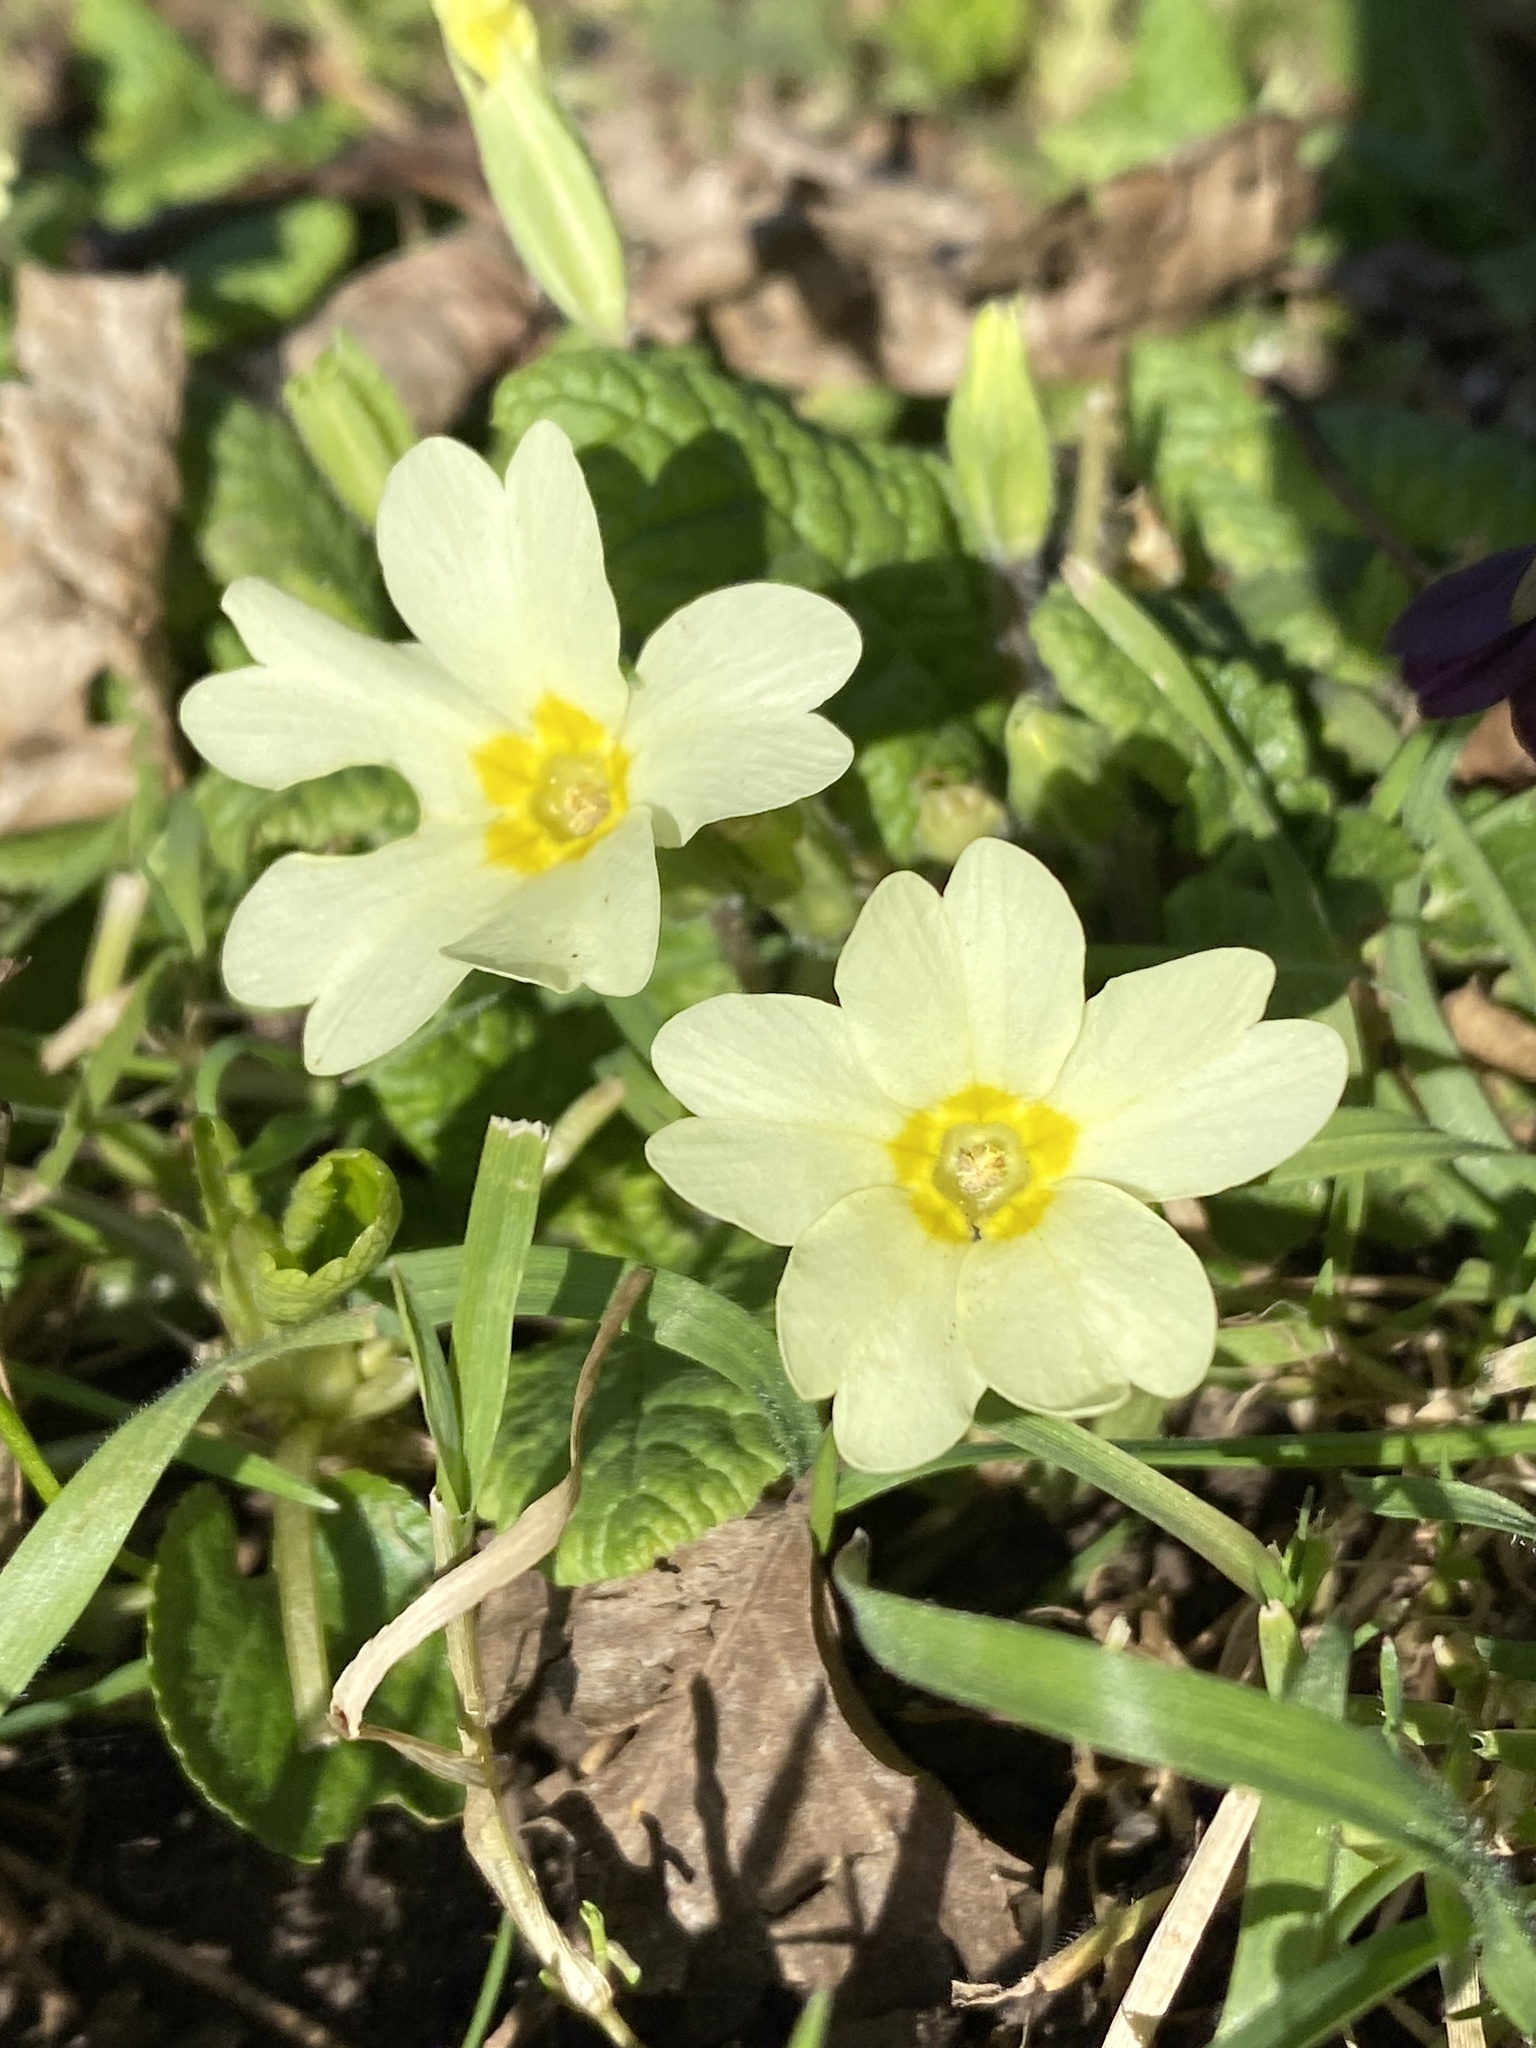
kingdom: Plantae
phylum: Tracheophyta
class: Magnoliopsida
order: Ericales
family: Primulaceae
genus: Primula
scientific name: Primula vulgaris
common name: Primrose
